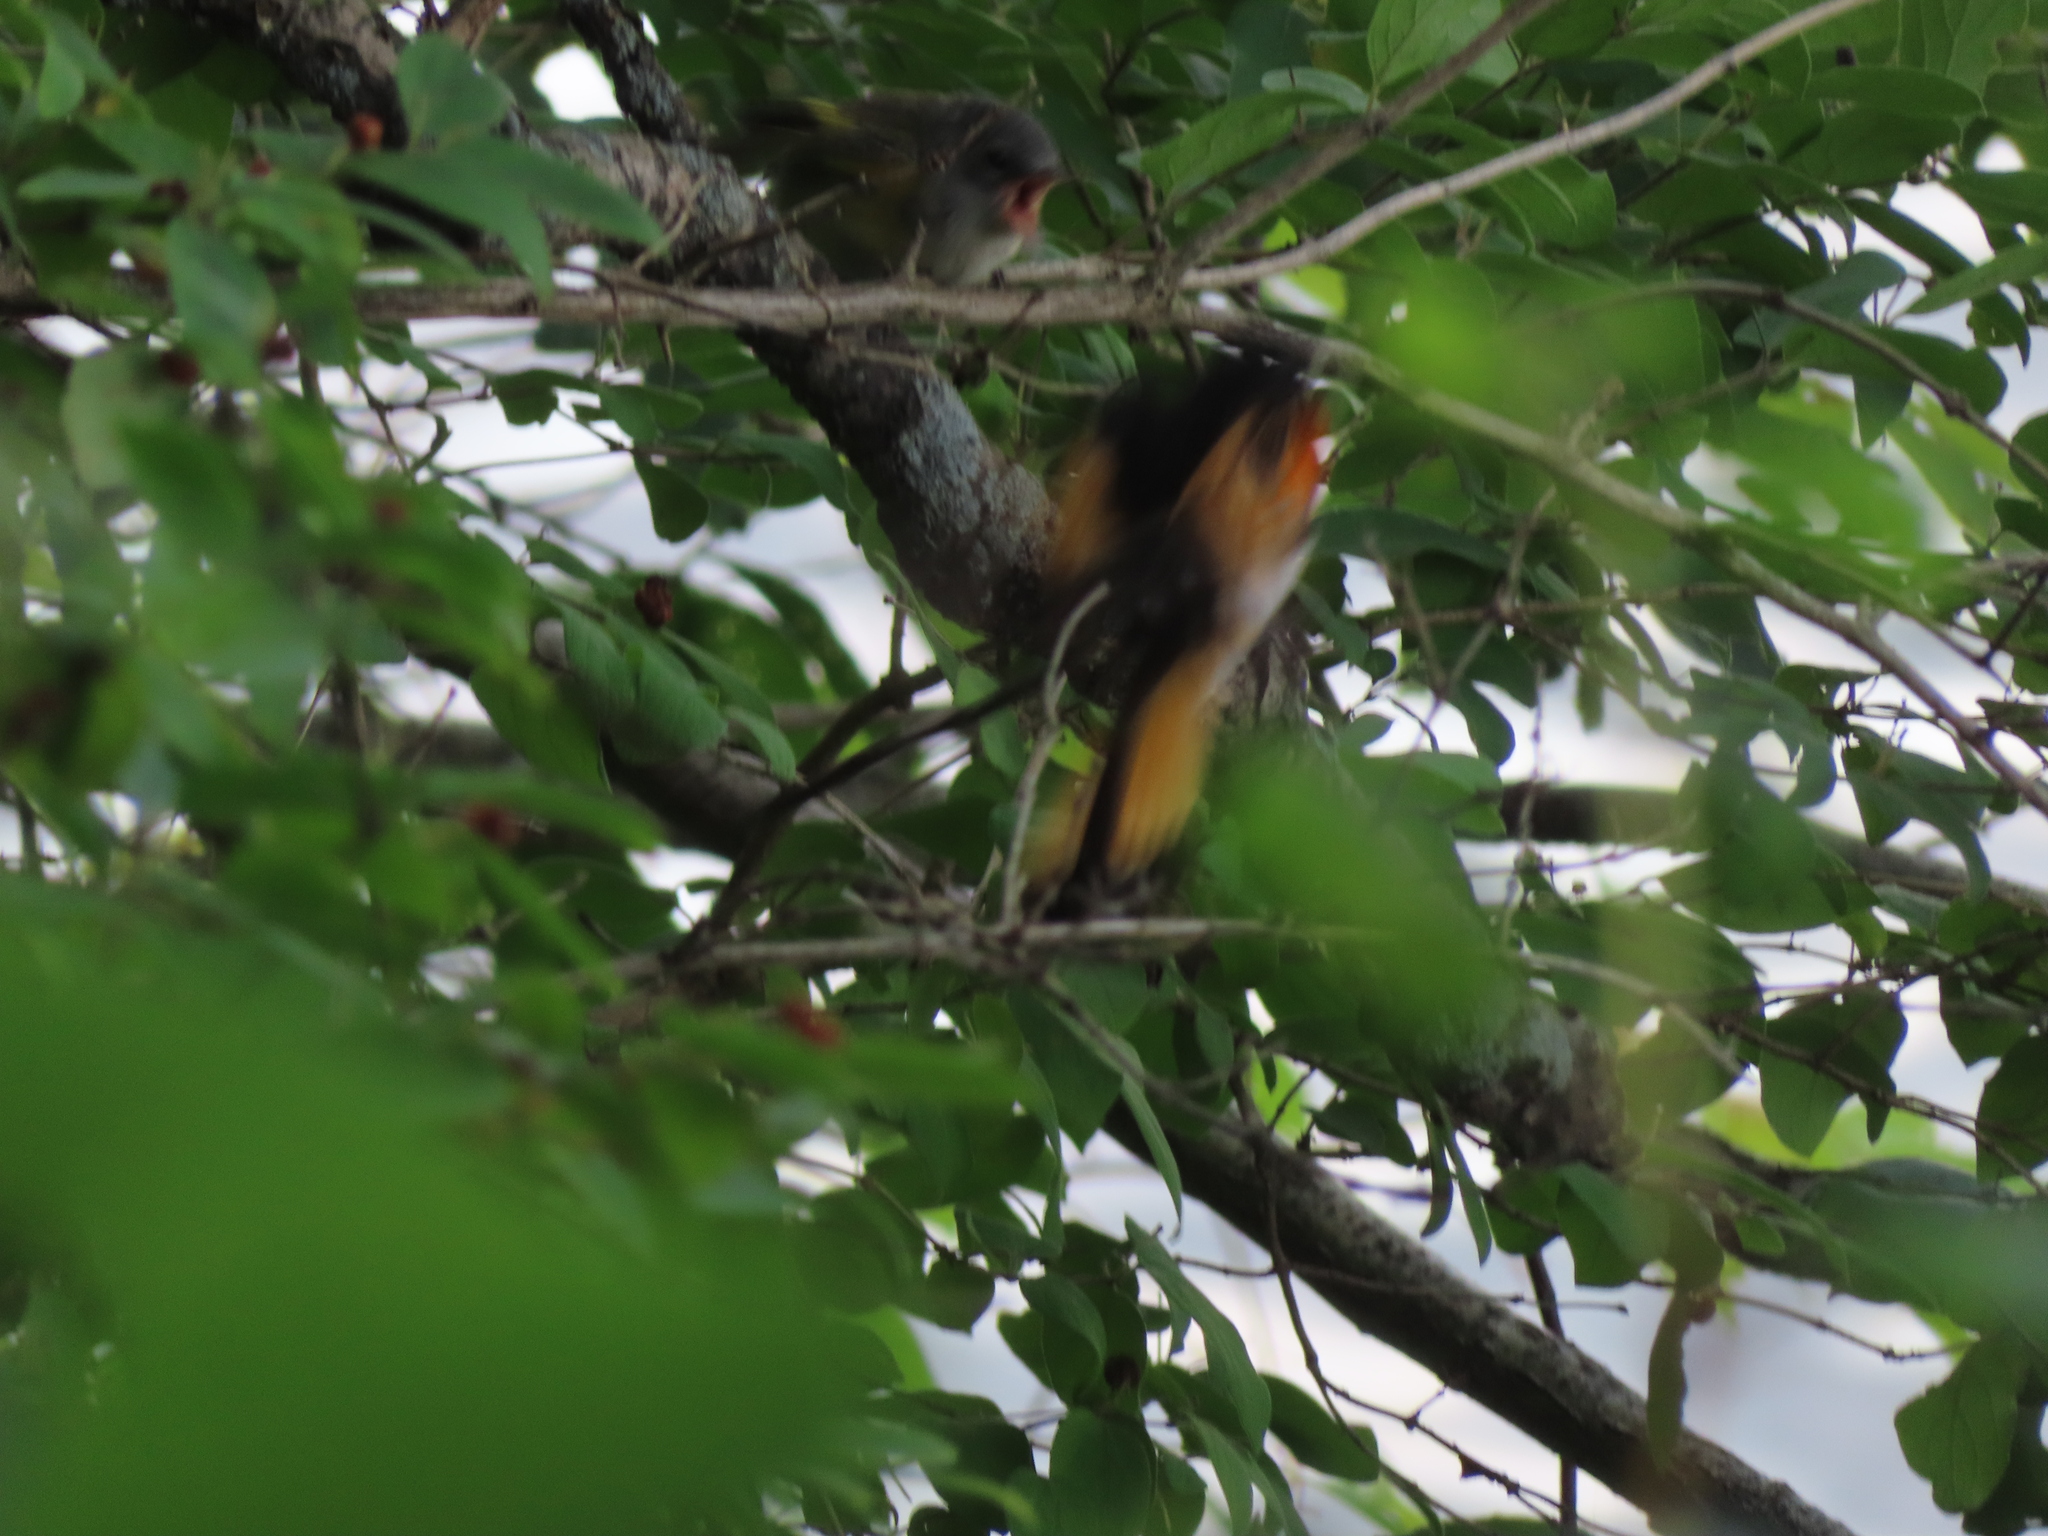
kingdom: Animalia
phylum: Chordata
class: Aves
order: Passeriformes
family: Parulidae
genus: Setophaga
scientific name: Setophaga ruticilla
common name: American redstart
